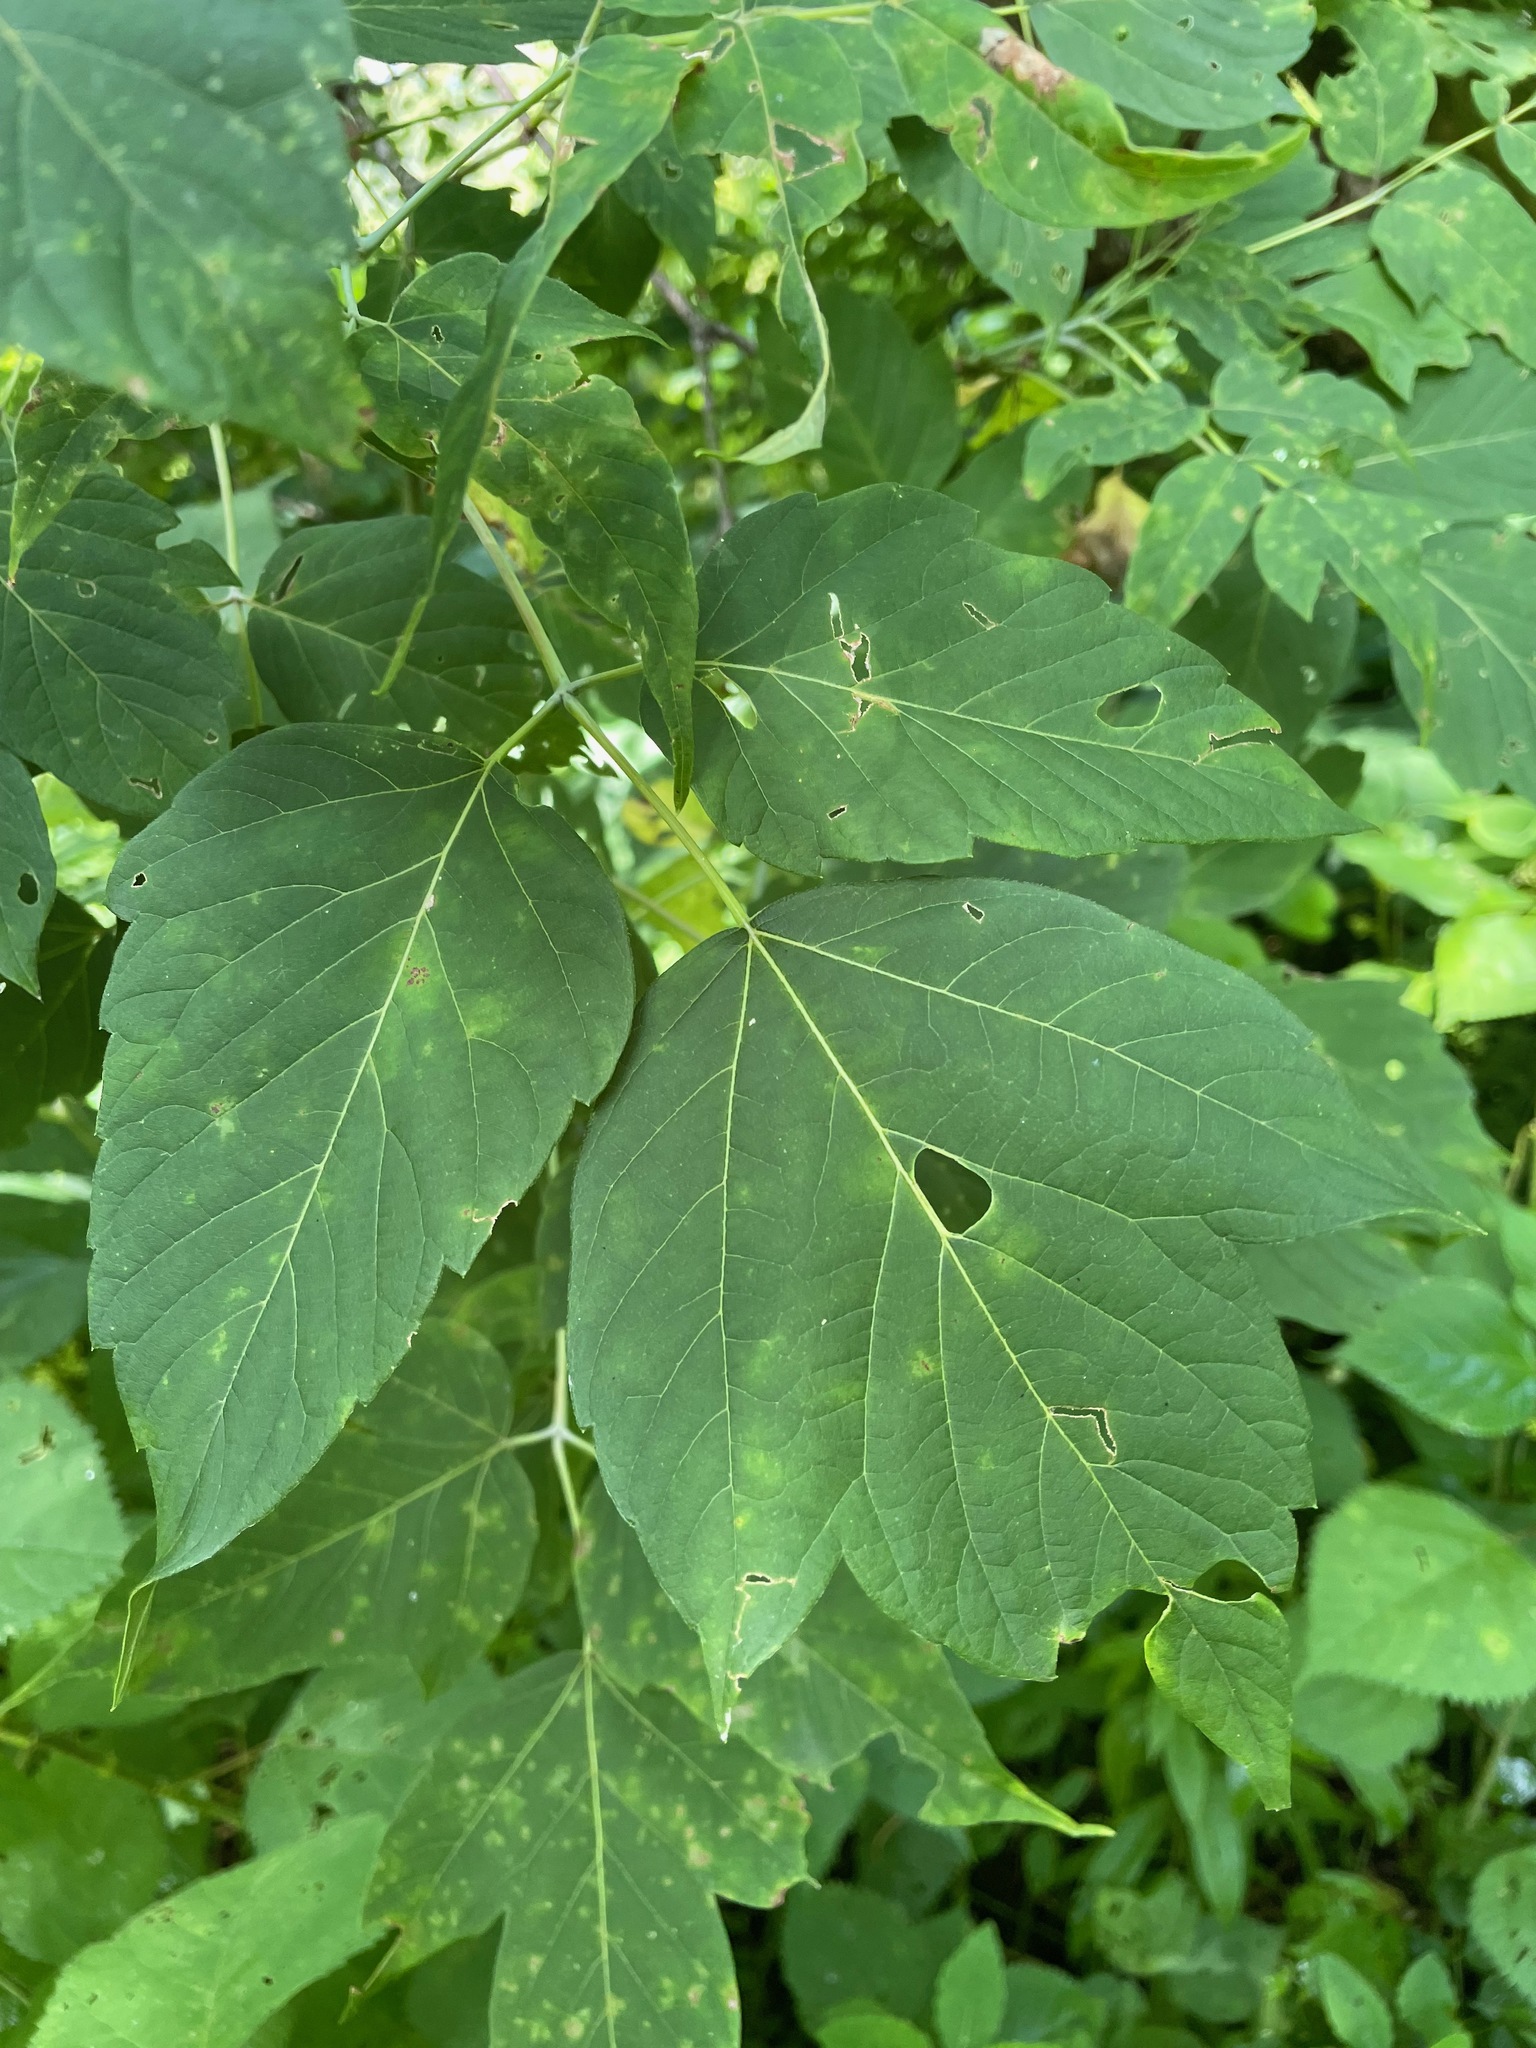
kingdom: Plantae
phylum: Tracheophyta
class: Magnoliopsida
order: Sapindales
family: Sapindaceae
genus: Acer
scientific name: Acer negundo
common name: Ashleaf maple
